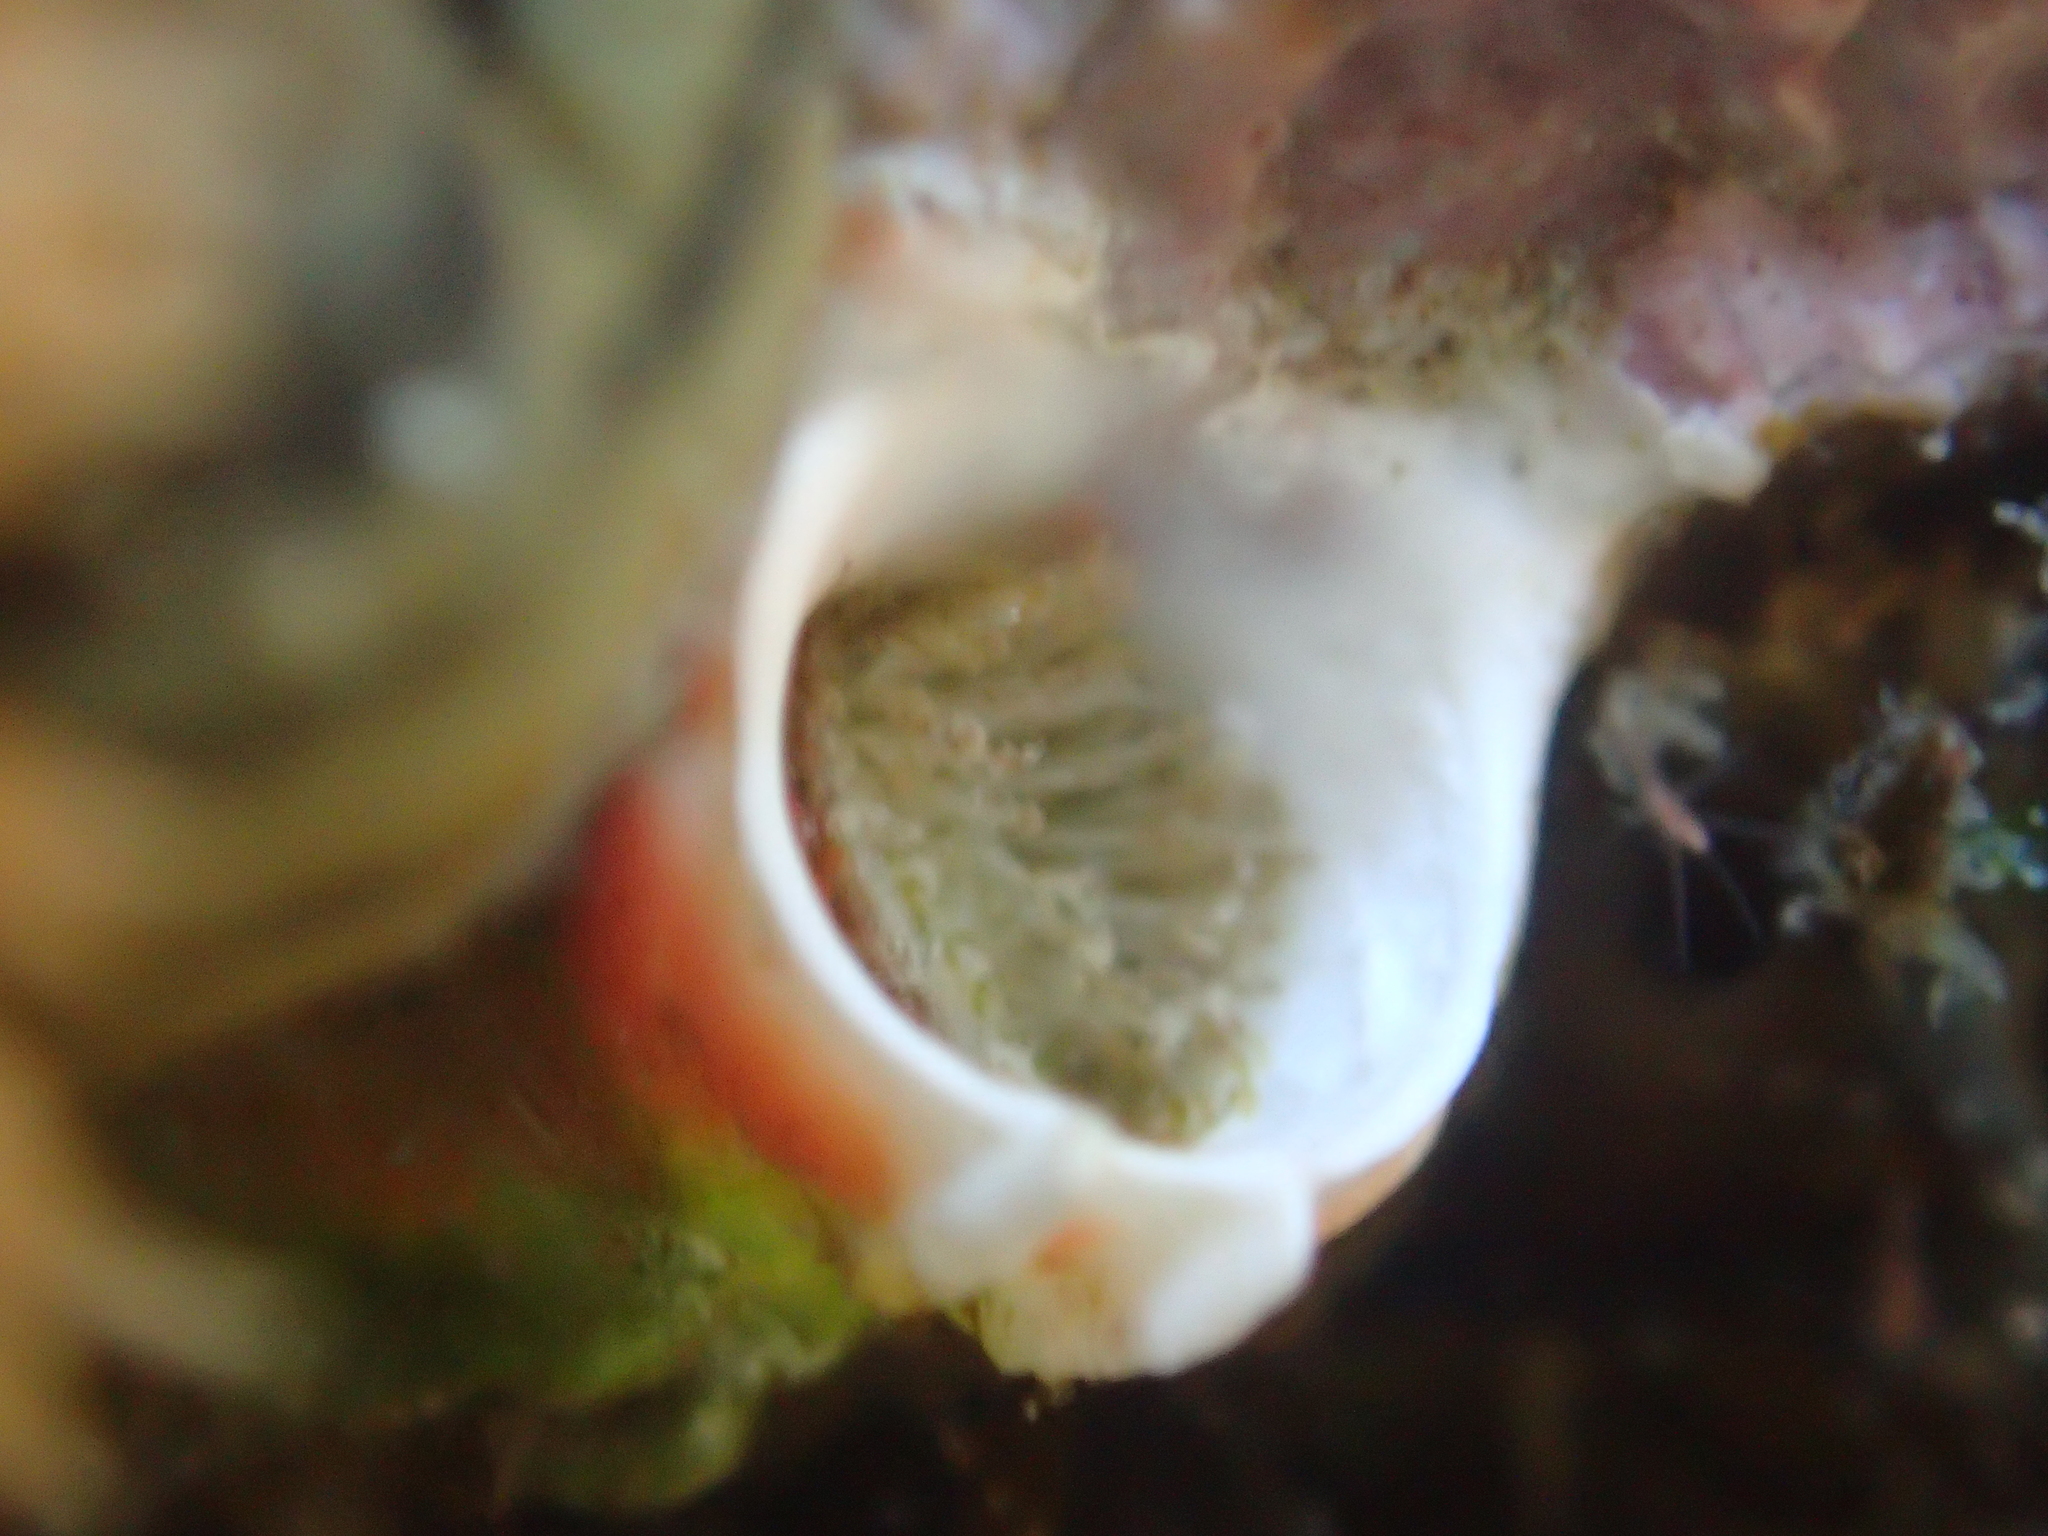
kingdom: Animalia
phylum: Annelida
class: Polychaeta
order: Sabellida
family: Serpulidae
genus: Galeolaria
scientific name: Galeolaria hystrix
